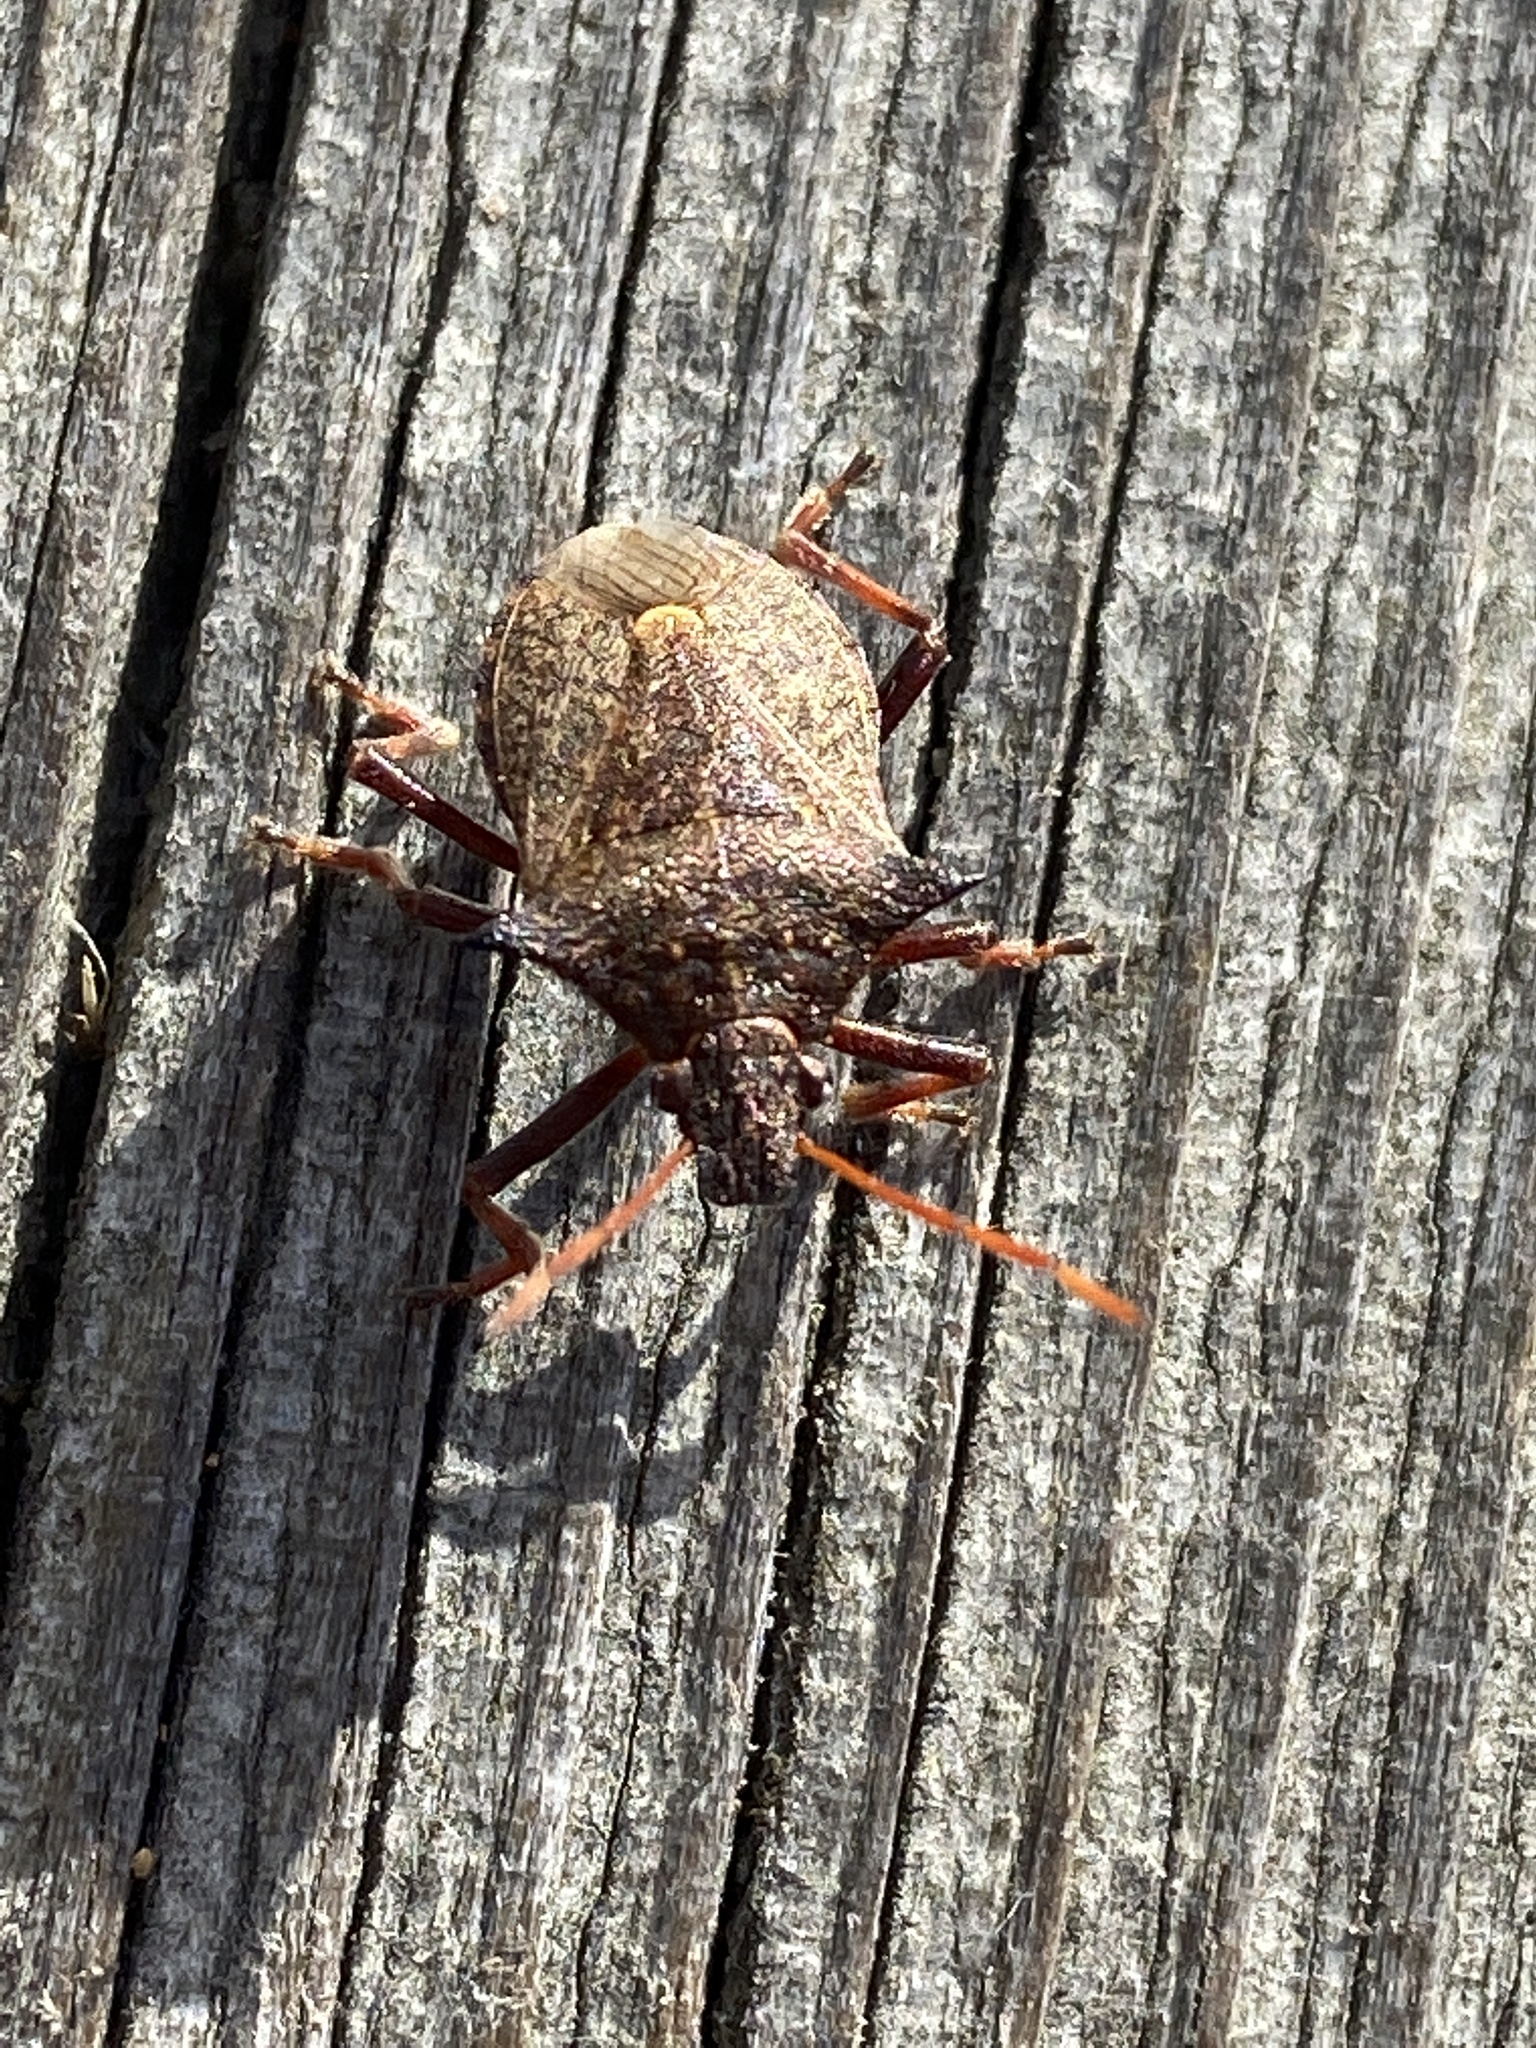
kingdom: Animalia
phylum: Arthropoda
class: Insecta
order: Hemiptera
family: Pentatomidae
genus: Picromerus
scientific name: Picromerus bidens
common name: Spiked shieldbug
